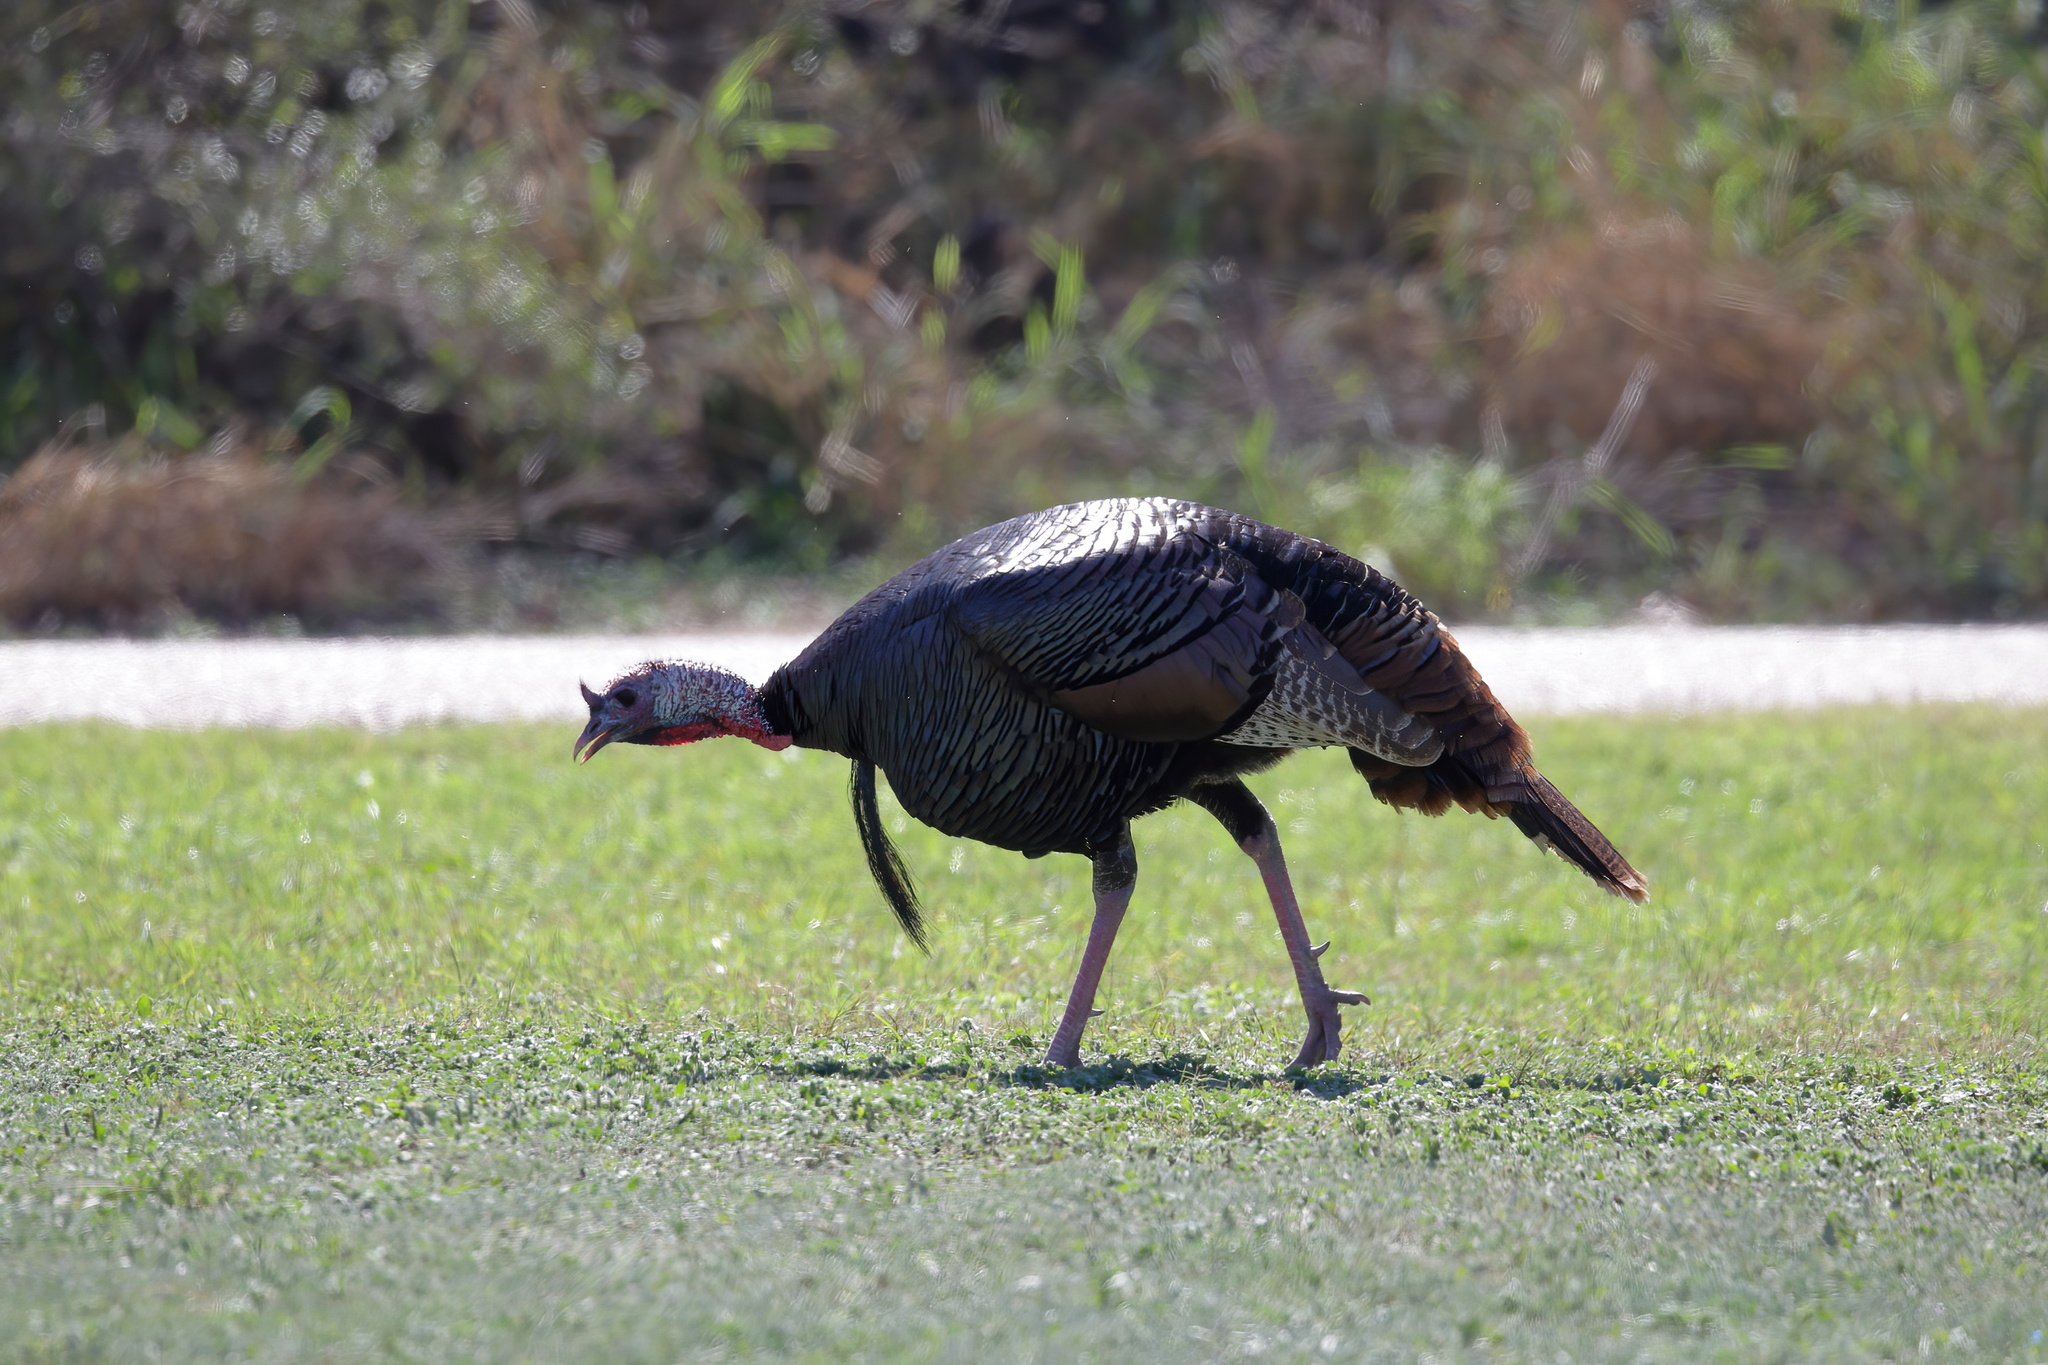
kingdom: Animalia
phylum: Chordata
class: Aves
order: Galliformes
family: Phasianidae
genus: Meleagris
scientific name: Meleagris gallopavo
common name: Wild turkey
